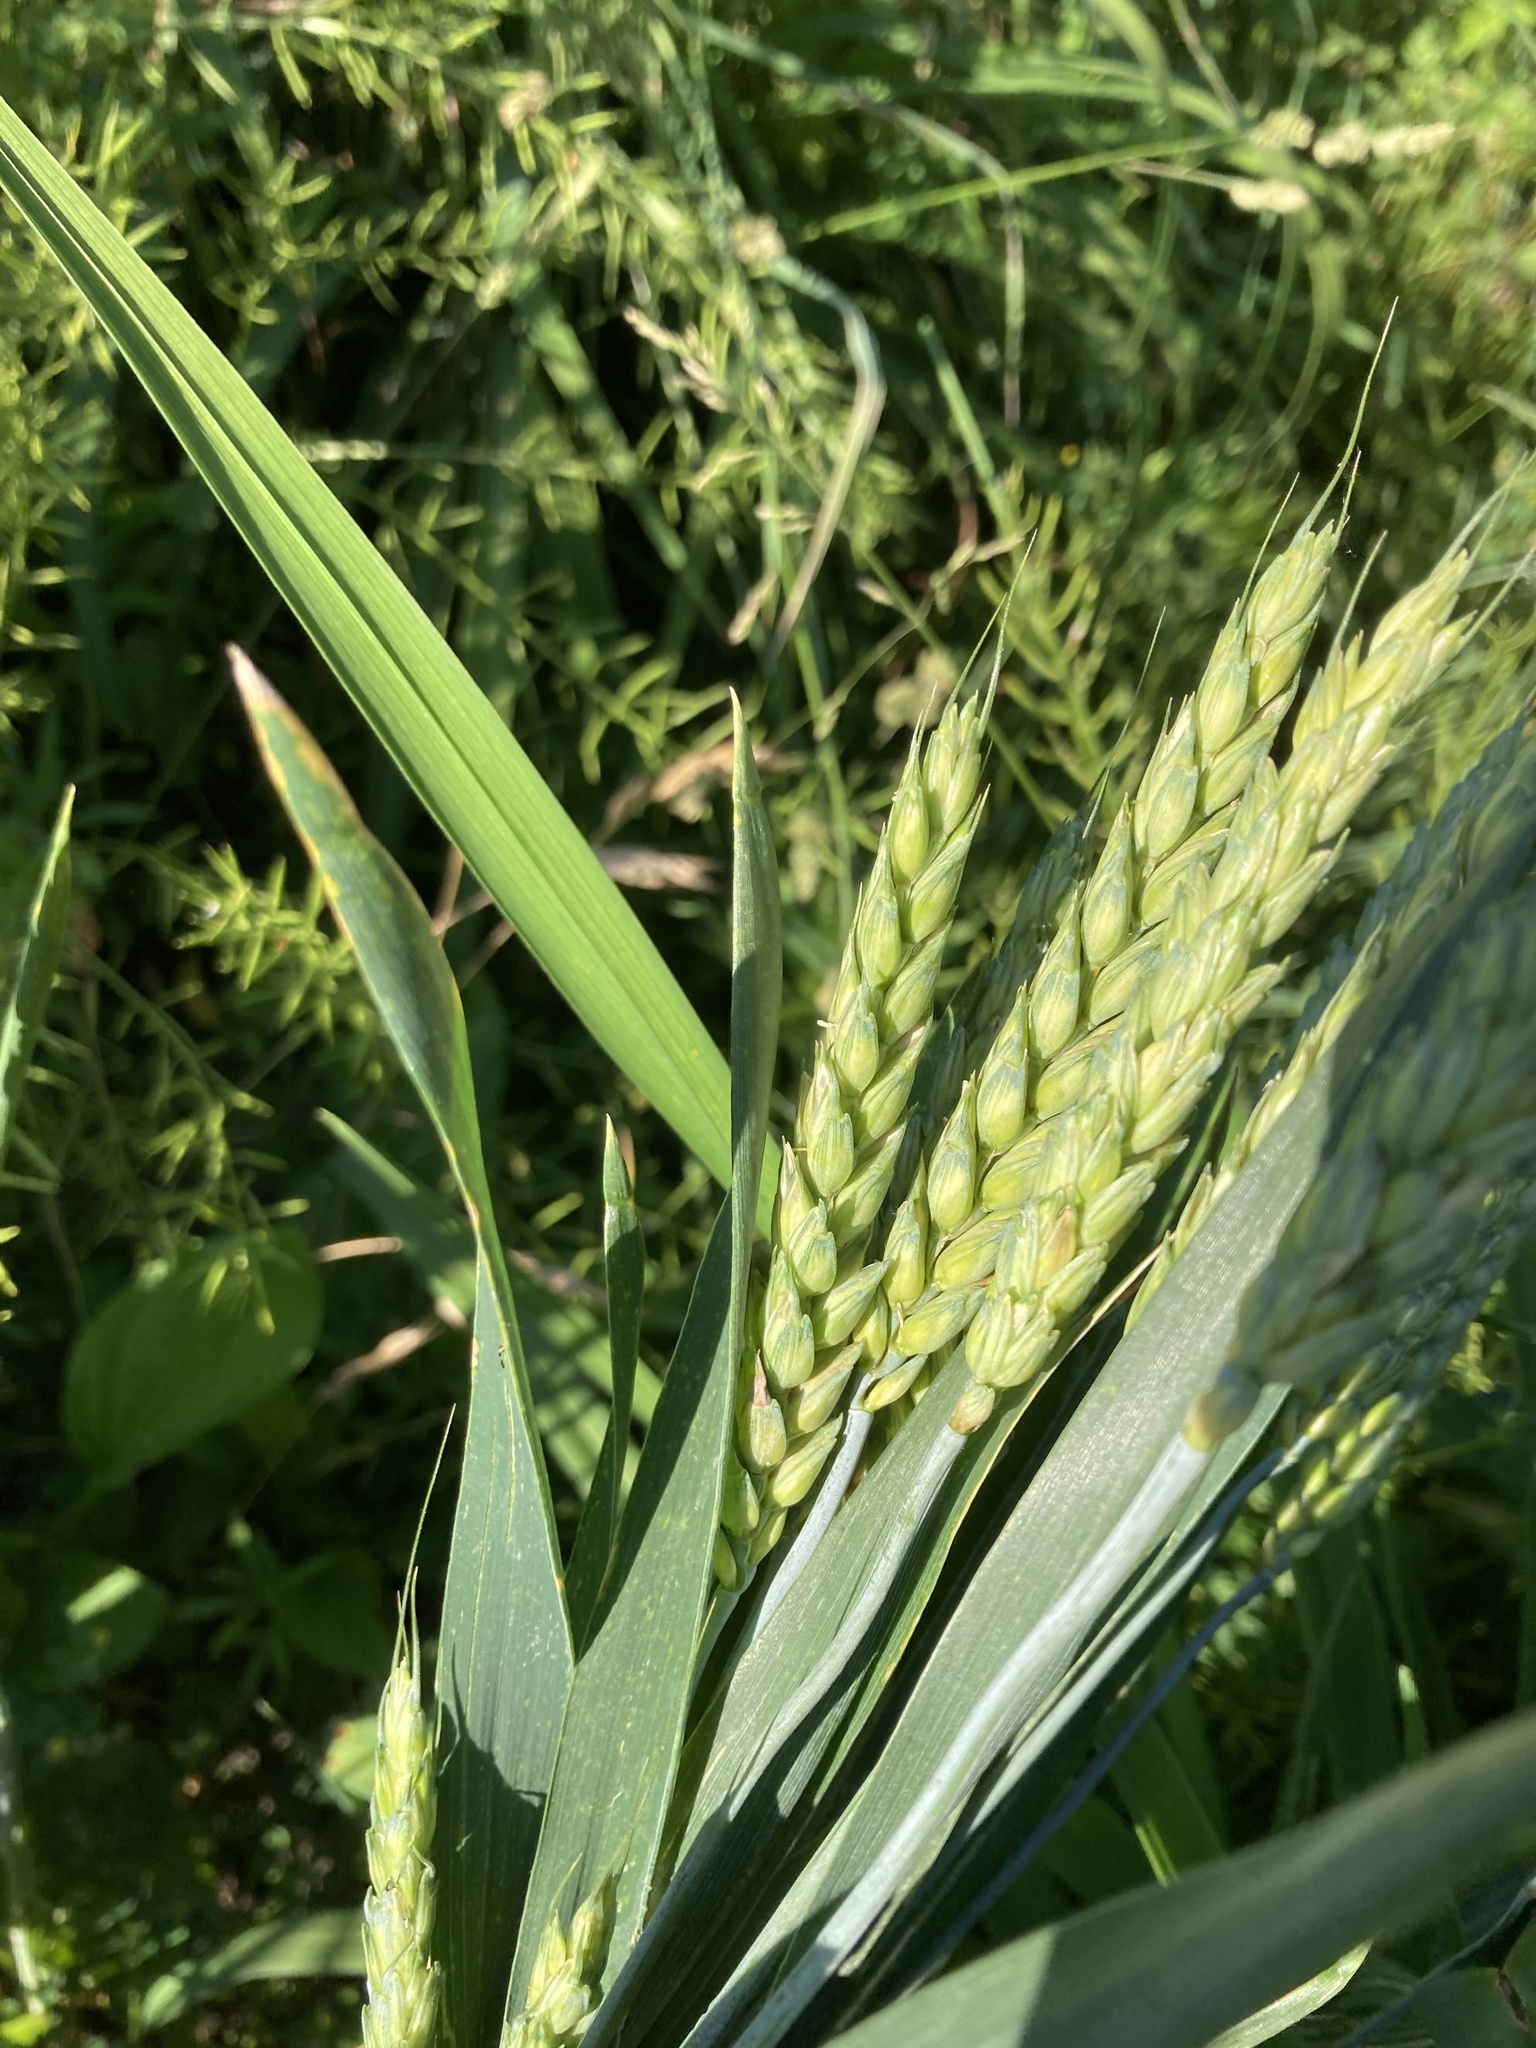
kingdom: Plantae
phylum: Tracheophyta
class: Liliopsida
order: Poales
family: Poaceae
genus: Triticum
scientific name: Triticum aestivum
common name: Common wheat
